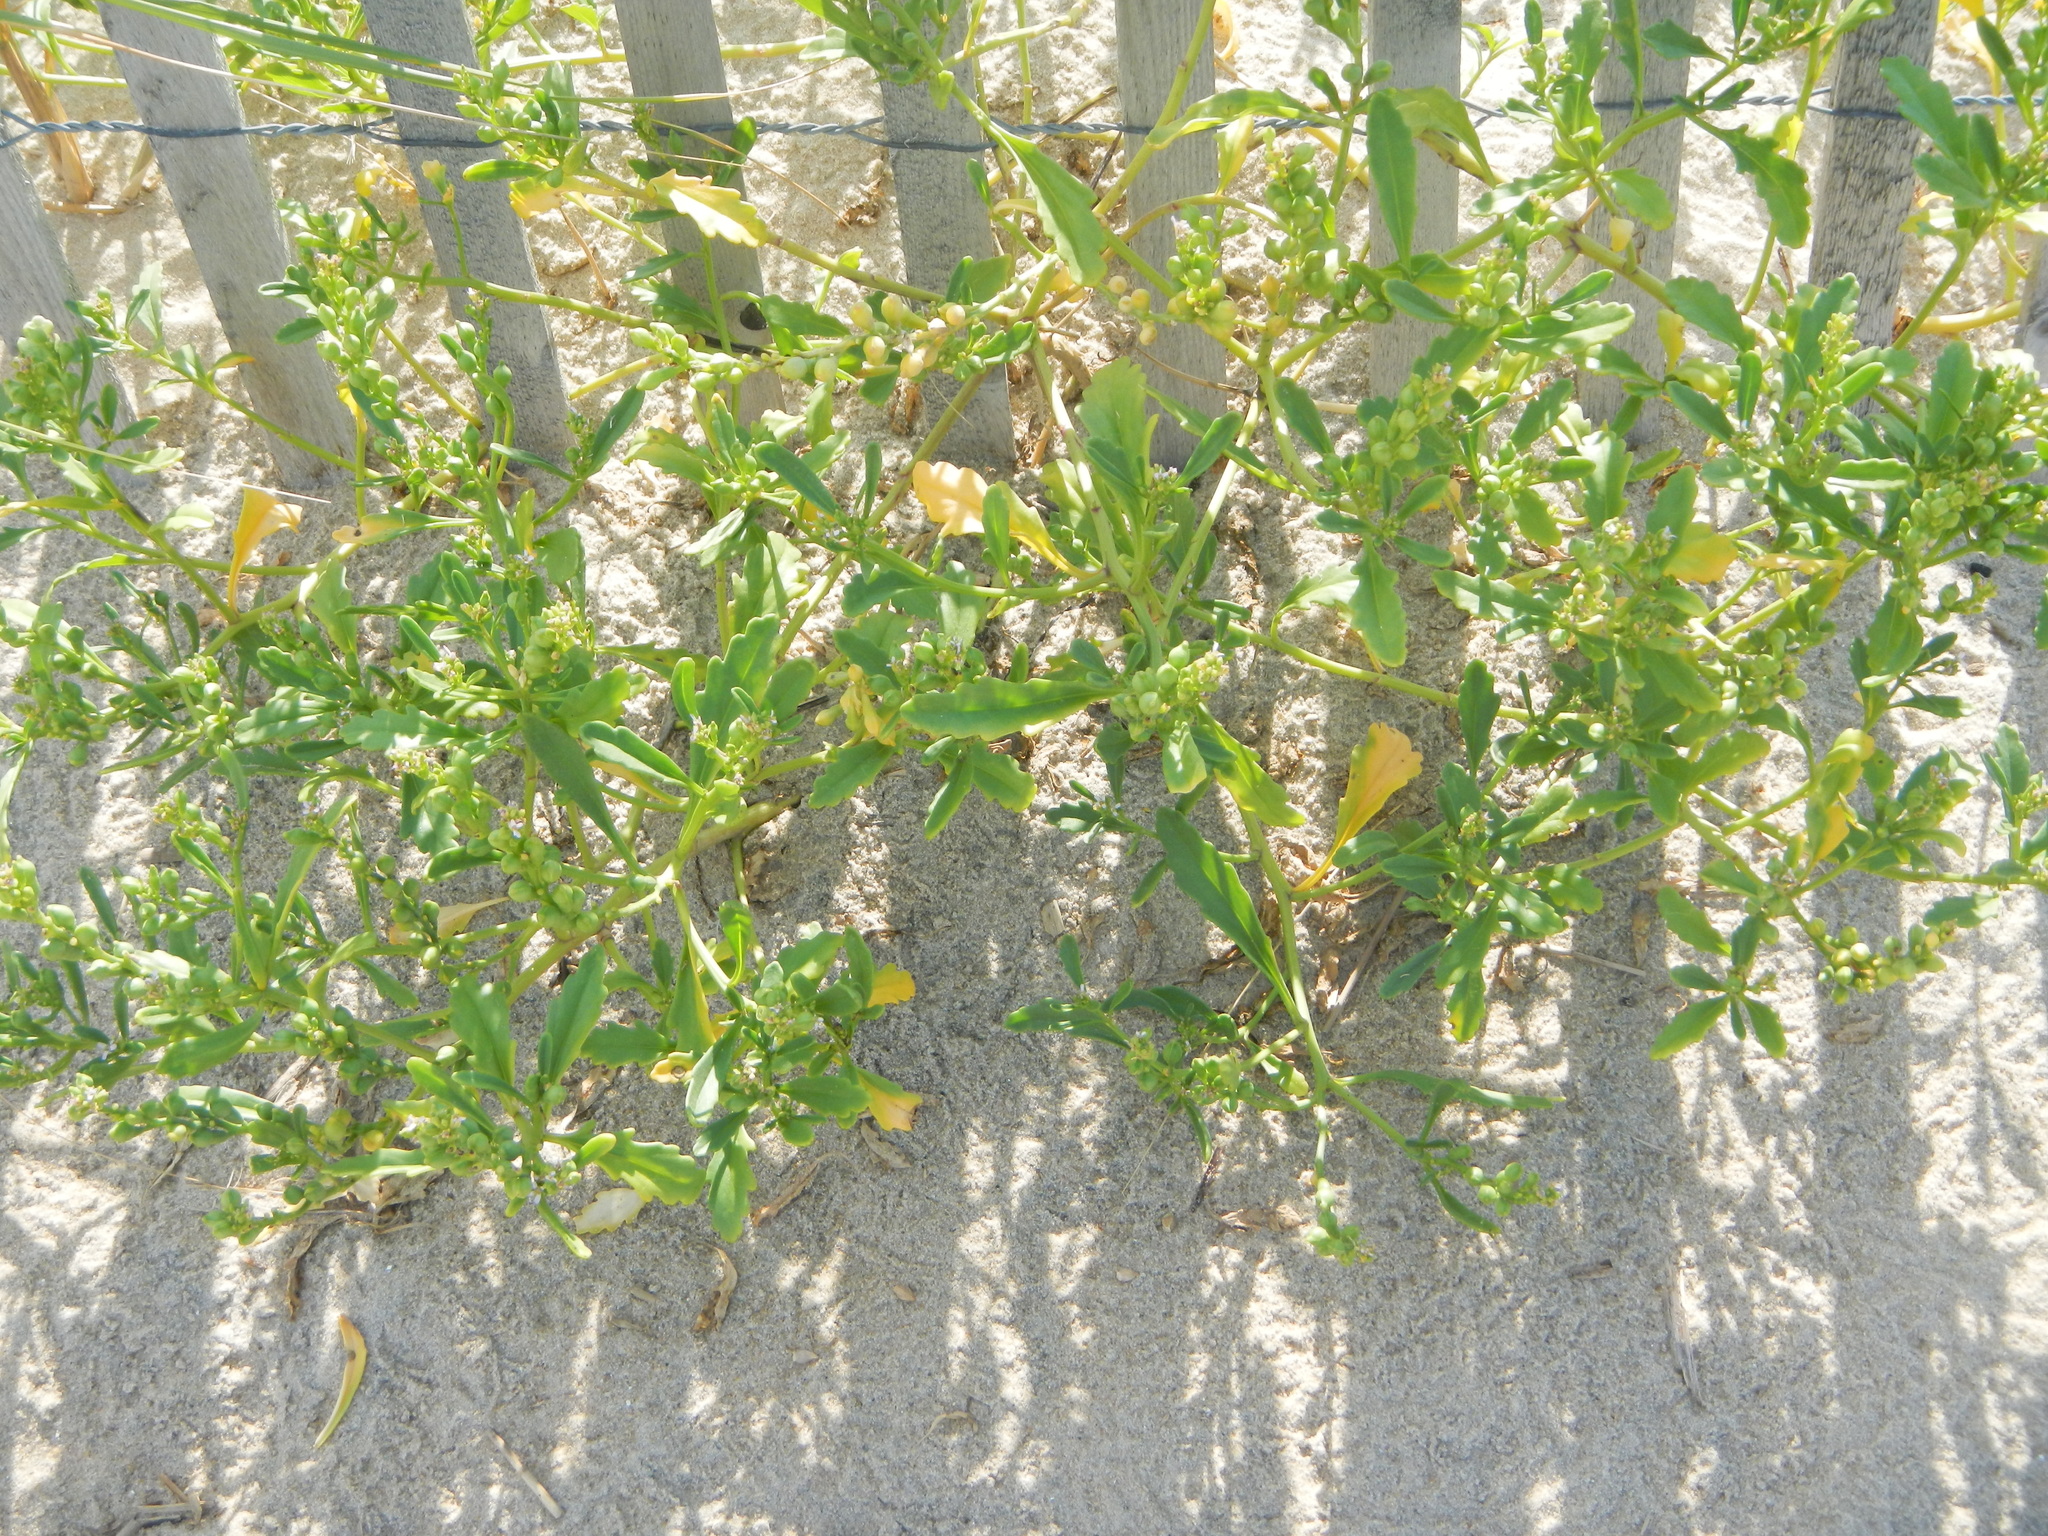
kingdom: Plantae
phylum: Tracheophyta
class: Magnoliopsida
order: Brassicales
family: Brassicaceae
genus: Cakile
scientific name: Cakile edentula
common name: American sea rocket
